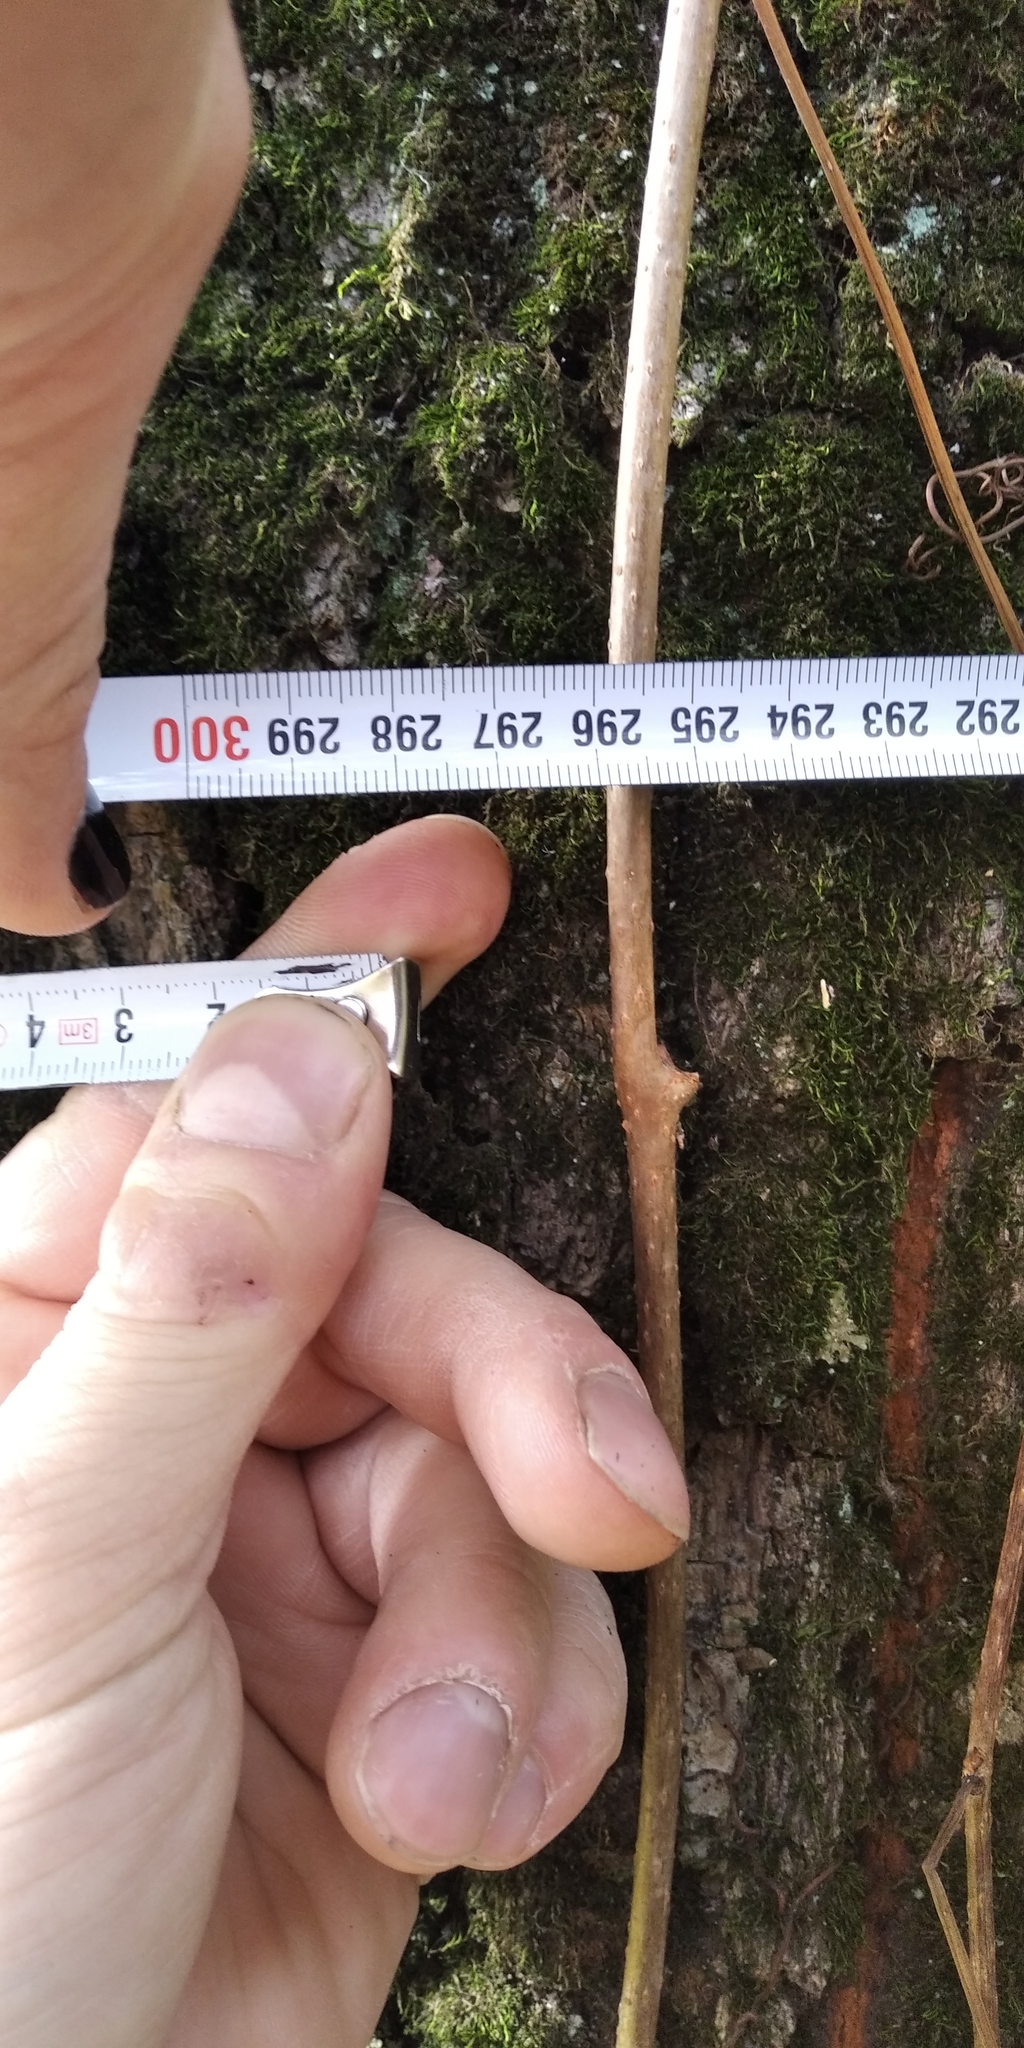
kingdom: Plantae
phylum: Tracheophyta
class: Magnoliopsida
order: Fagales
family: Fagaceae
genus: Quercus
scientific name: Quercus robur
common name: Pedunculate oak
